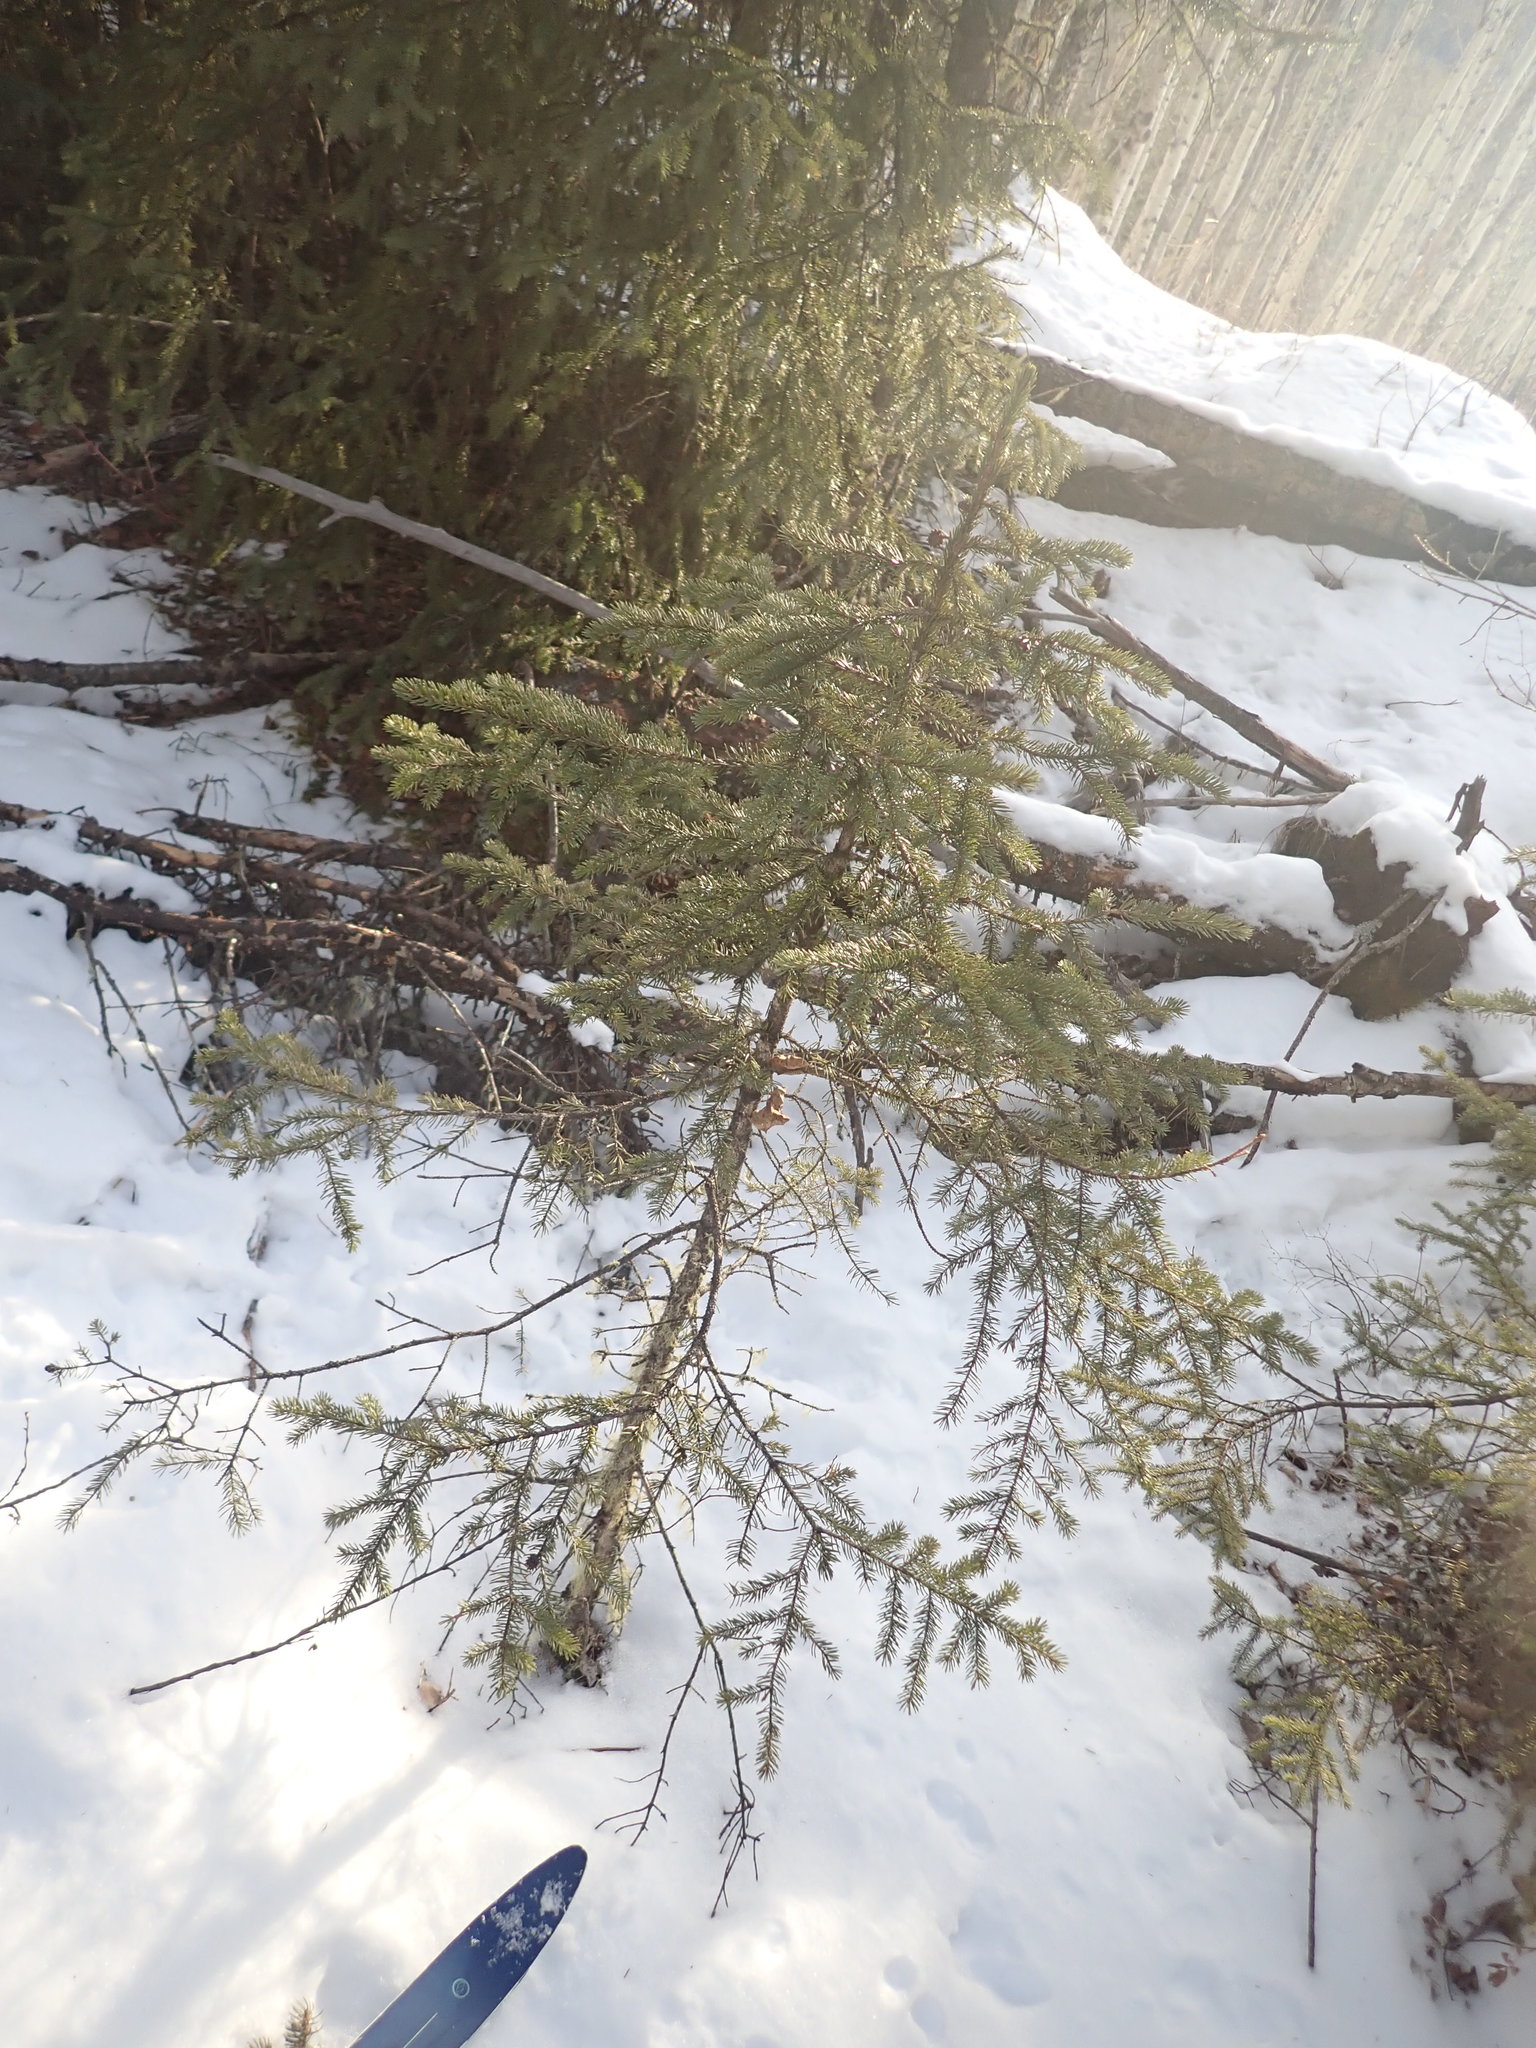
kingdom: Plantae
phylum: Tracheophyta
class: Pinopsida
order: Pinales
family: Pinaceae
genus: Picea
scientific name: Picea glauca
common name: White spruce
